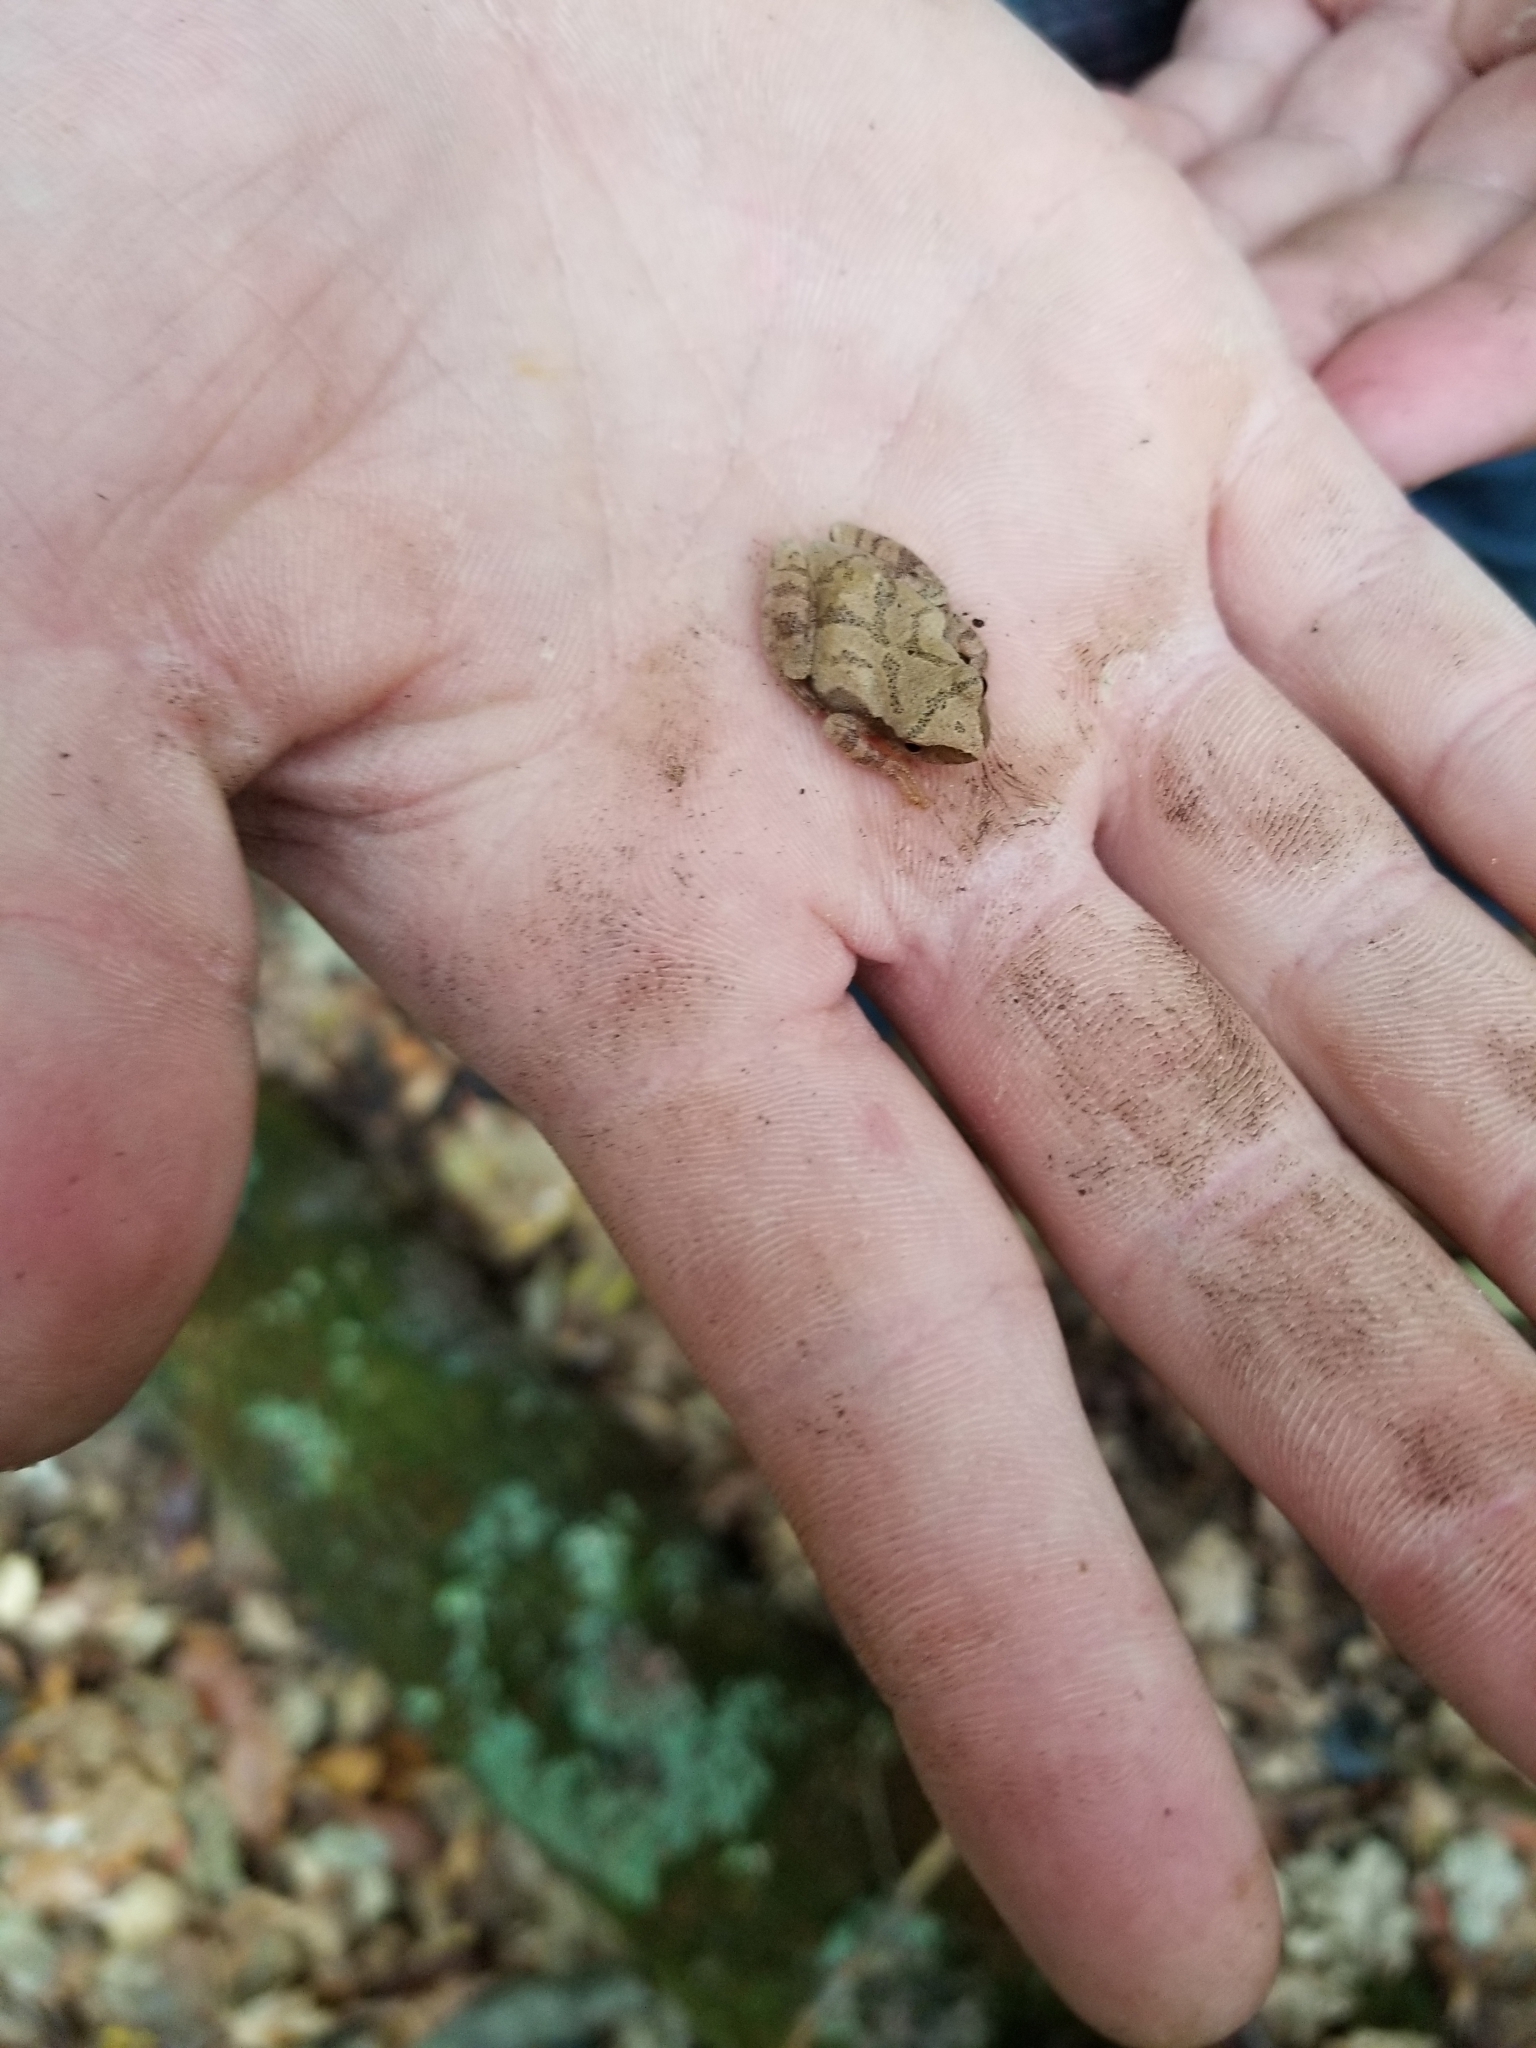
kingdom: Animalia
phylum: Chordata
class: Amphibia
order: Anura
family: Hylidae
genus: Pseudacris
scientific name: Pseudacris crucifer
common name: Spring peeper
